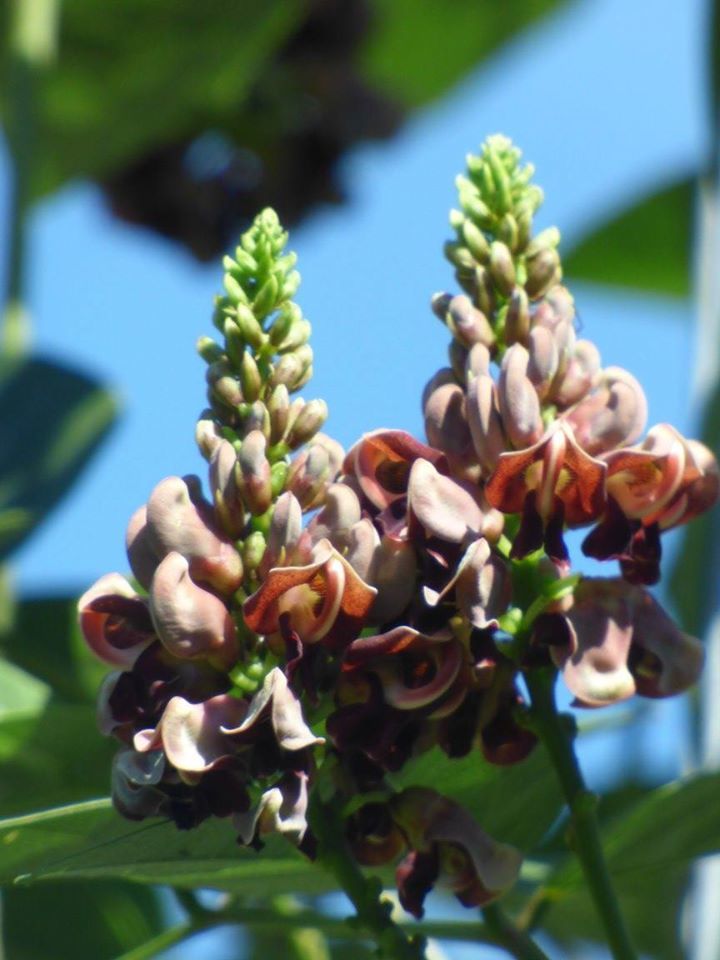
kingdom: Plantae
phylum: Tracheophyta
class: Magnoliopsida
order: Fabales
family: Fabaceae
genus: Apios
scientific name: Apios americana
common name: American potato-bean
